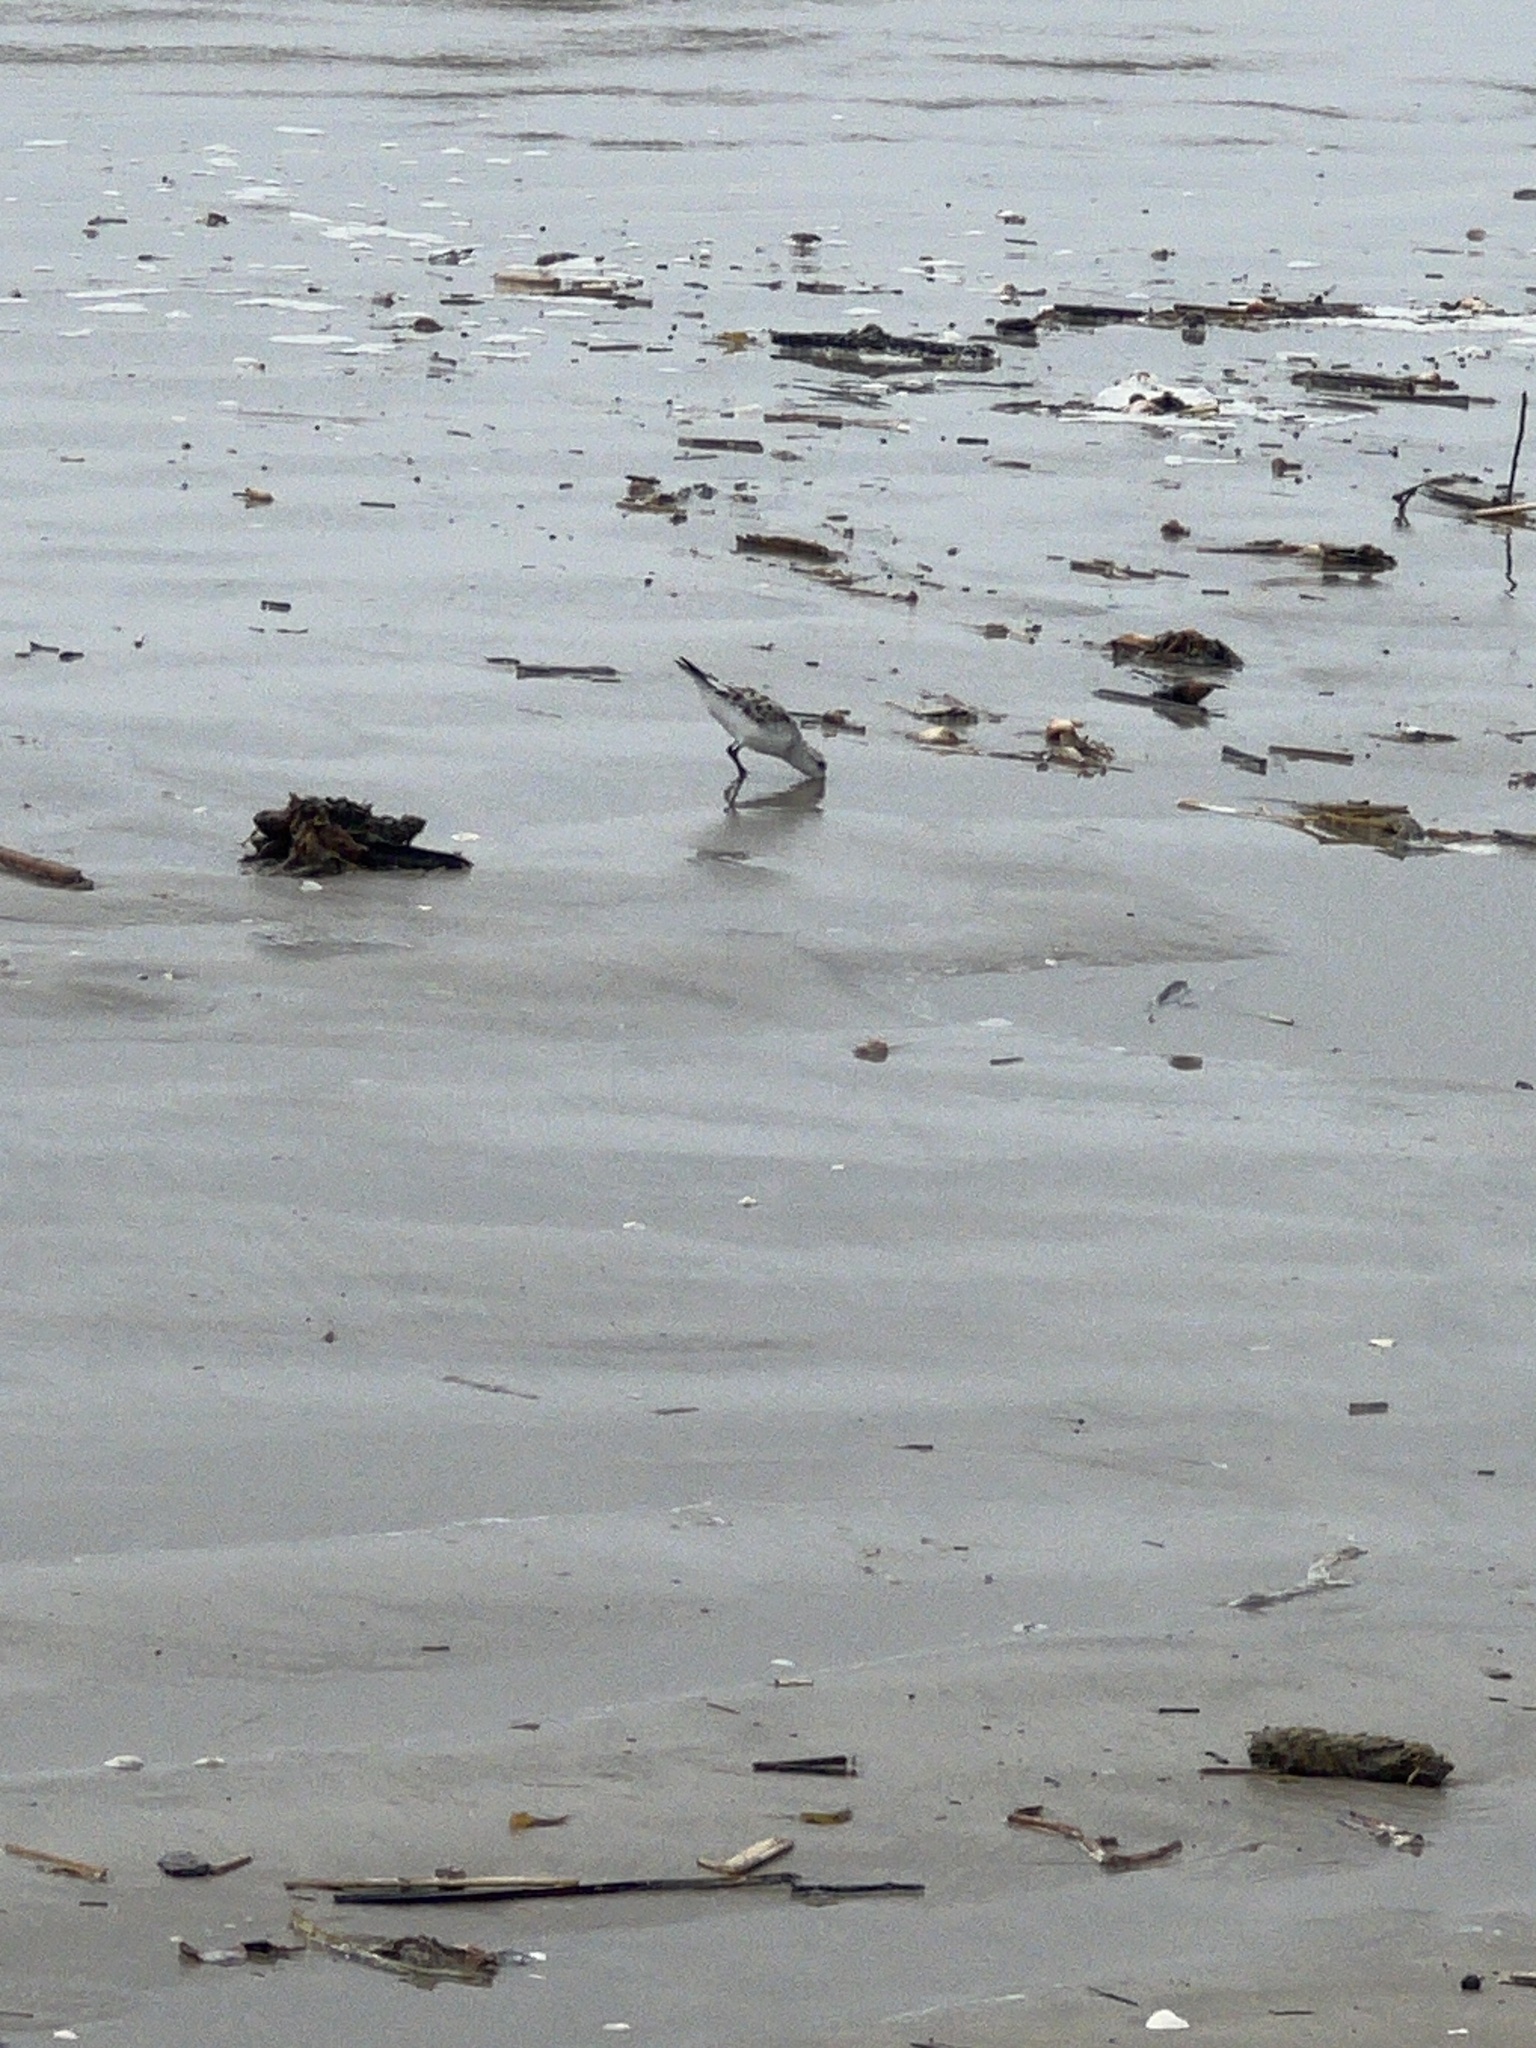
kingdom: Animalia
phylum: Chordata
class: Aves
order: Charadriiformes
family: Scolopacidae
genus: Calidris
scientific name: Calidris alba
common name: Sanderling
